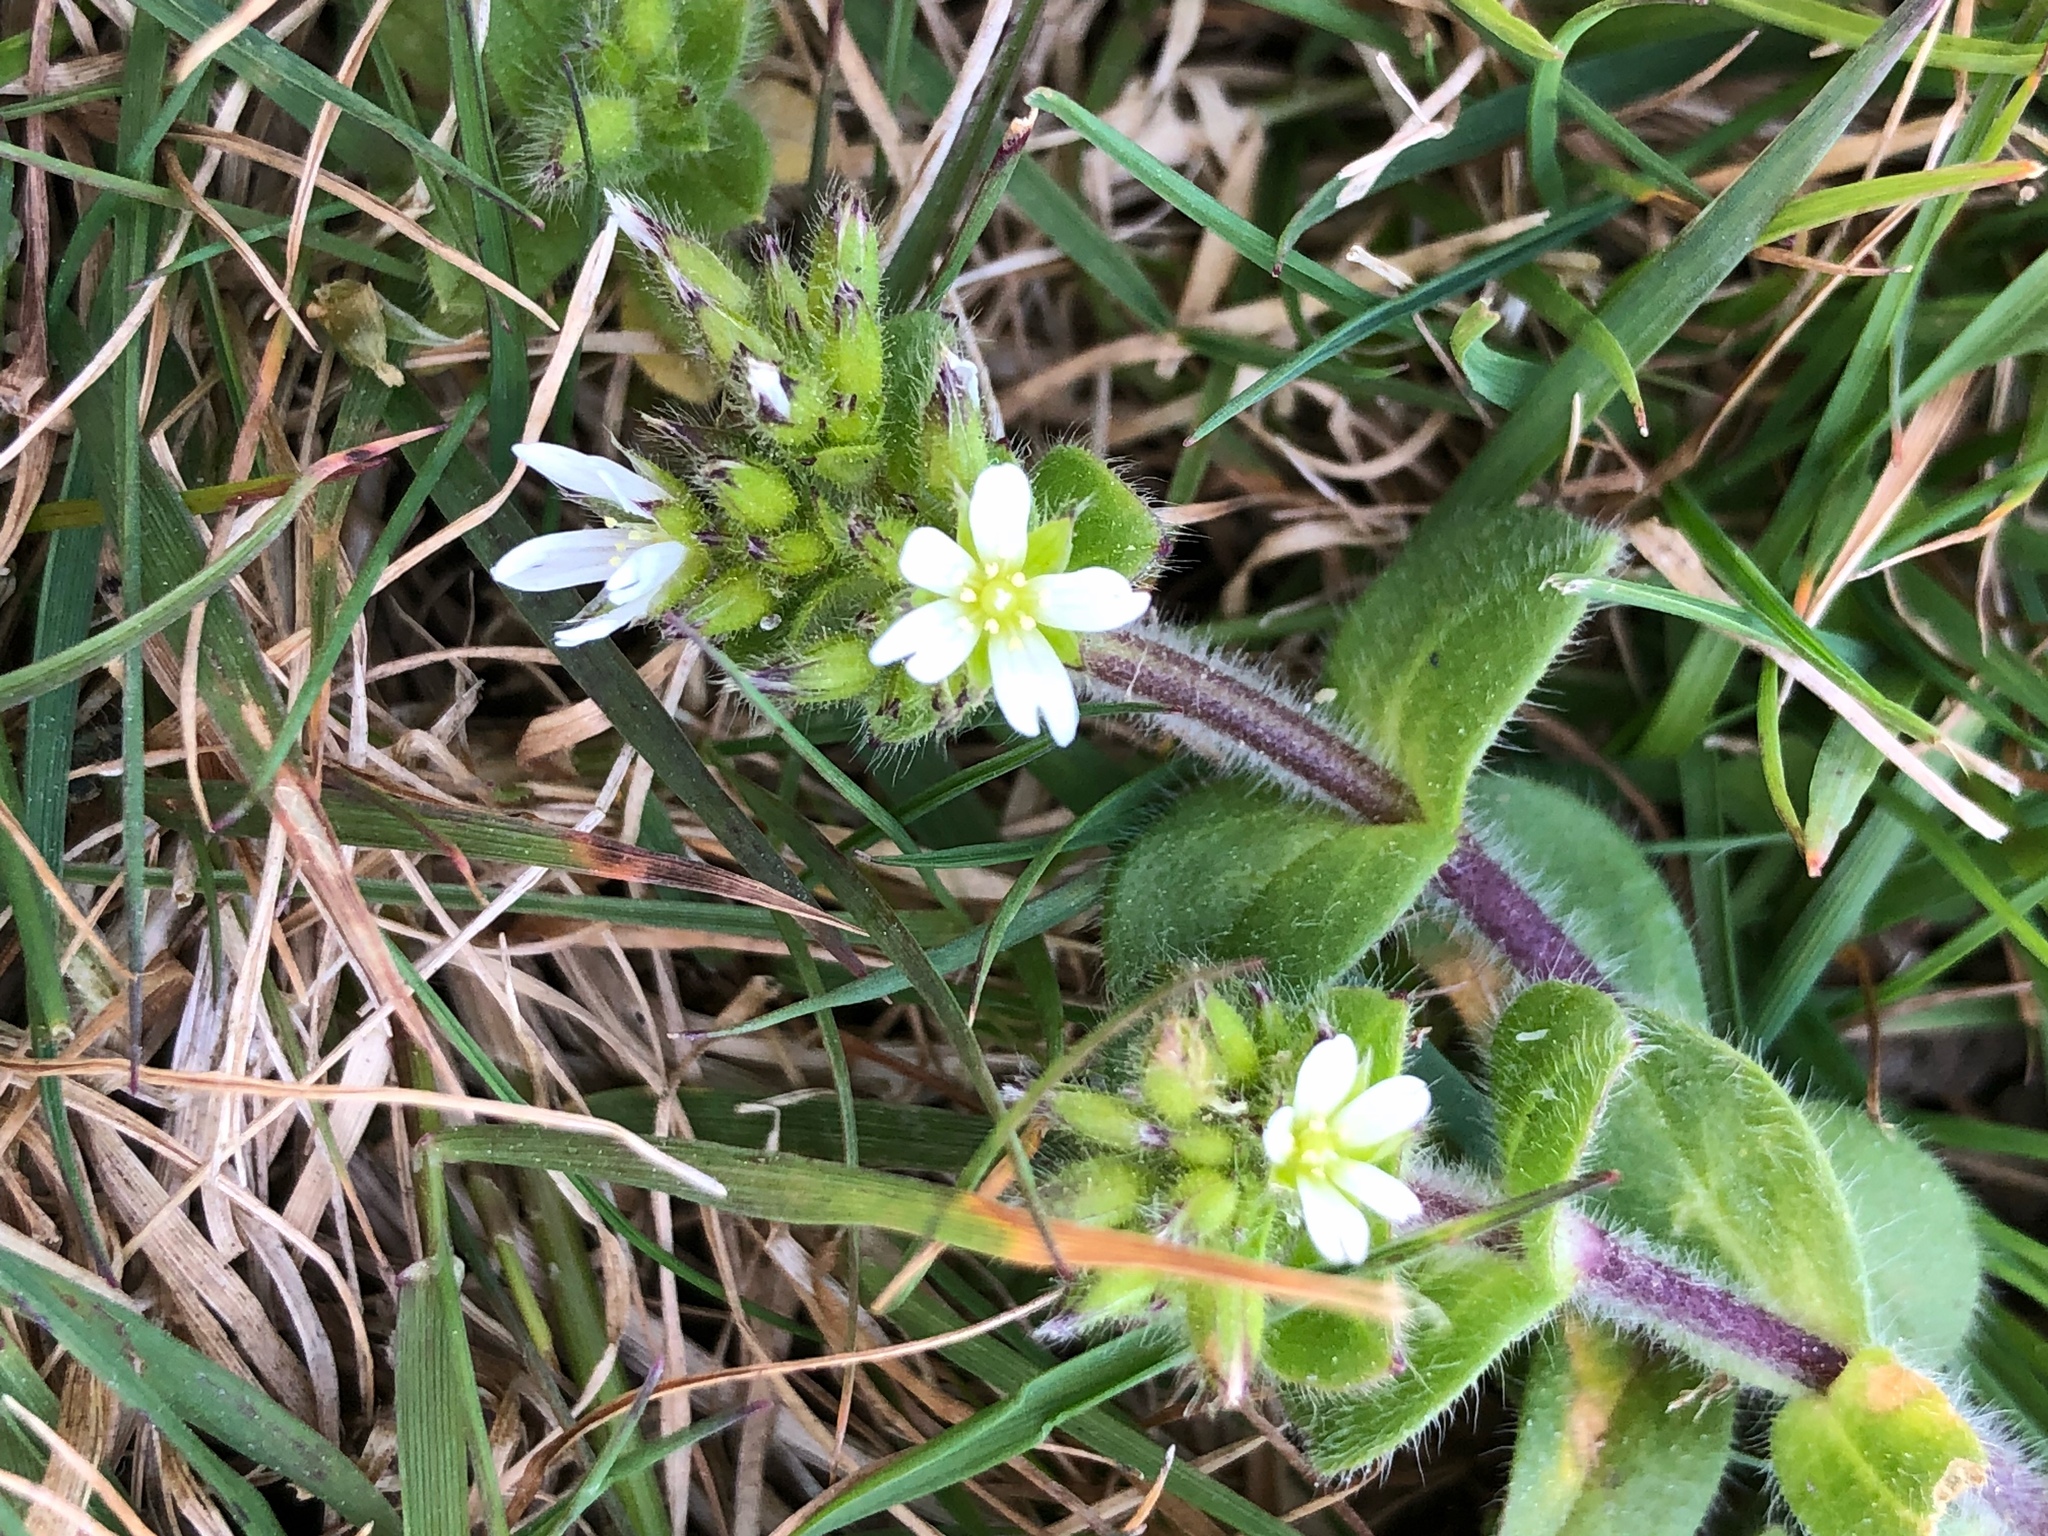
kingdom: Plantae
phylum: Tracheophyta
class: Magnoliopsida
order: Caryophyllales
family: Caryophyllaceae
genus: Cerastium
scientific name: Cerastium fontanum
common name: Common mouse-ear
